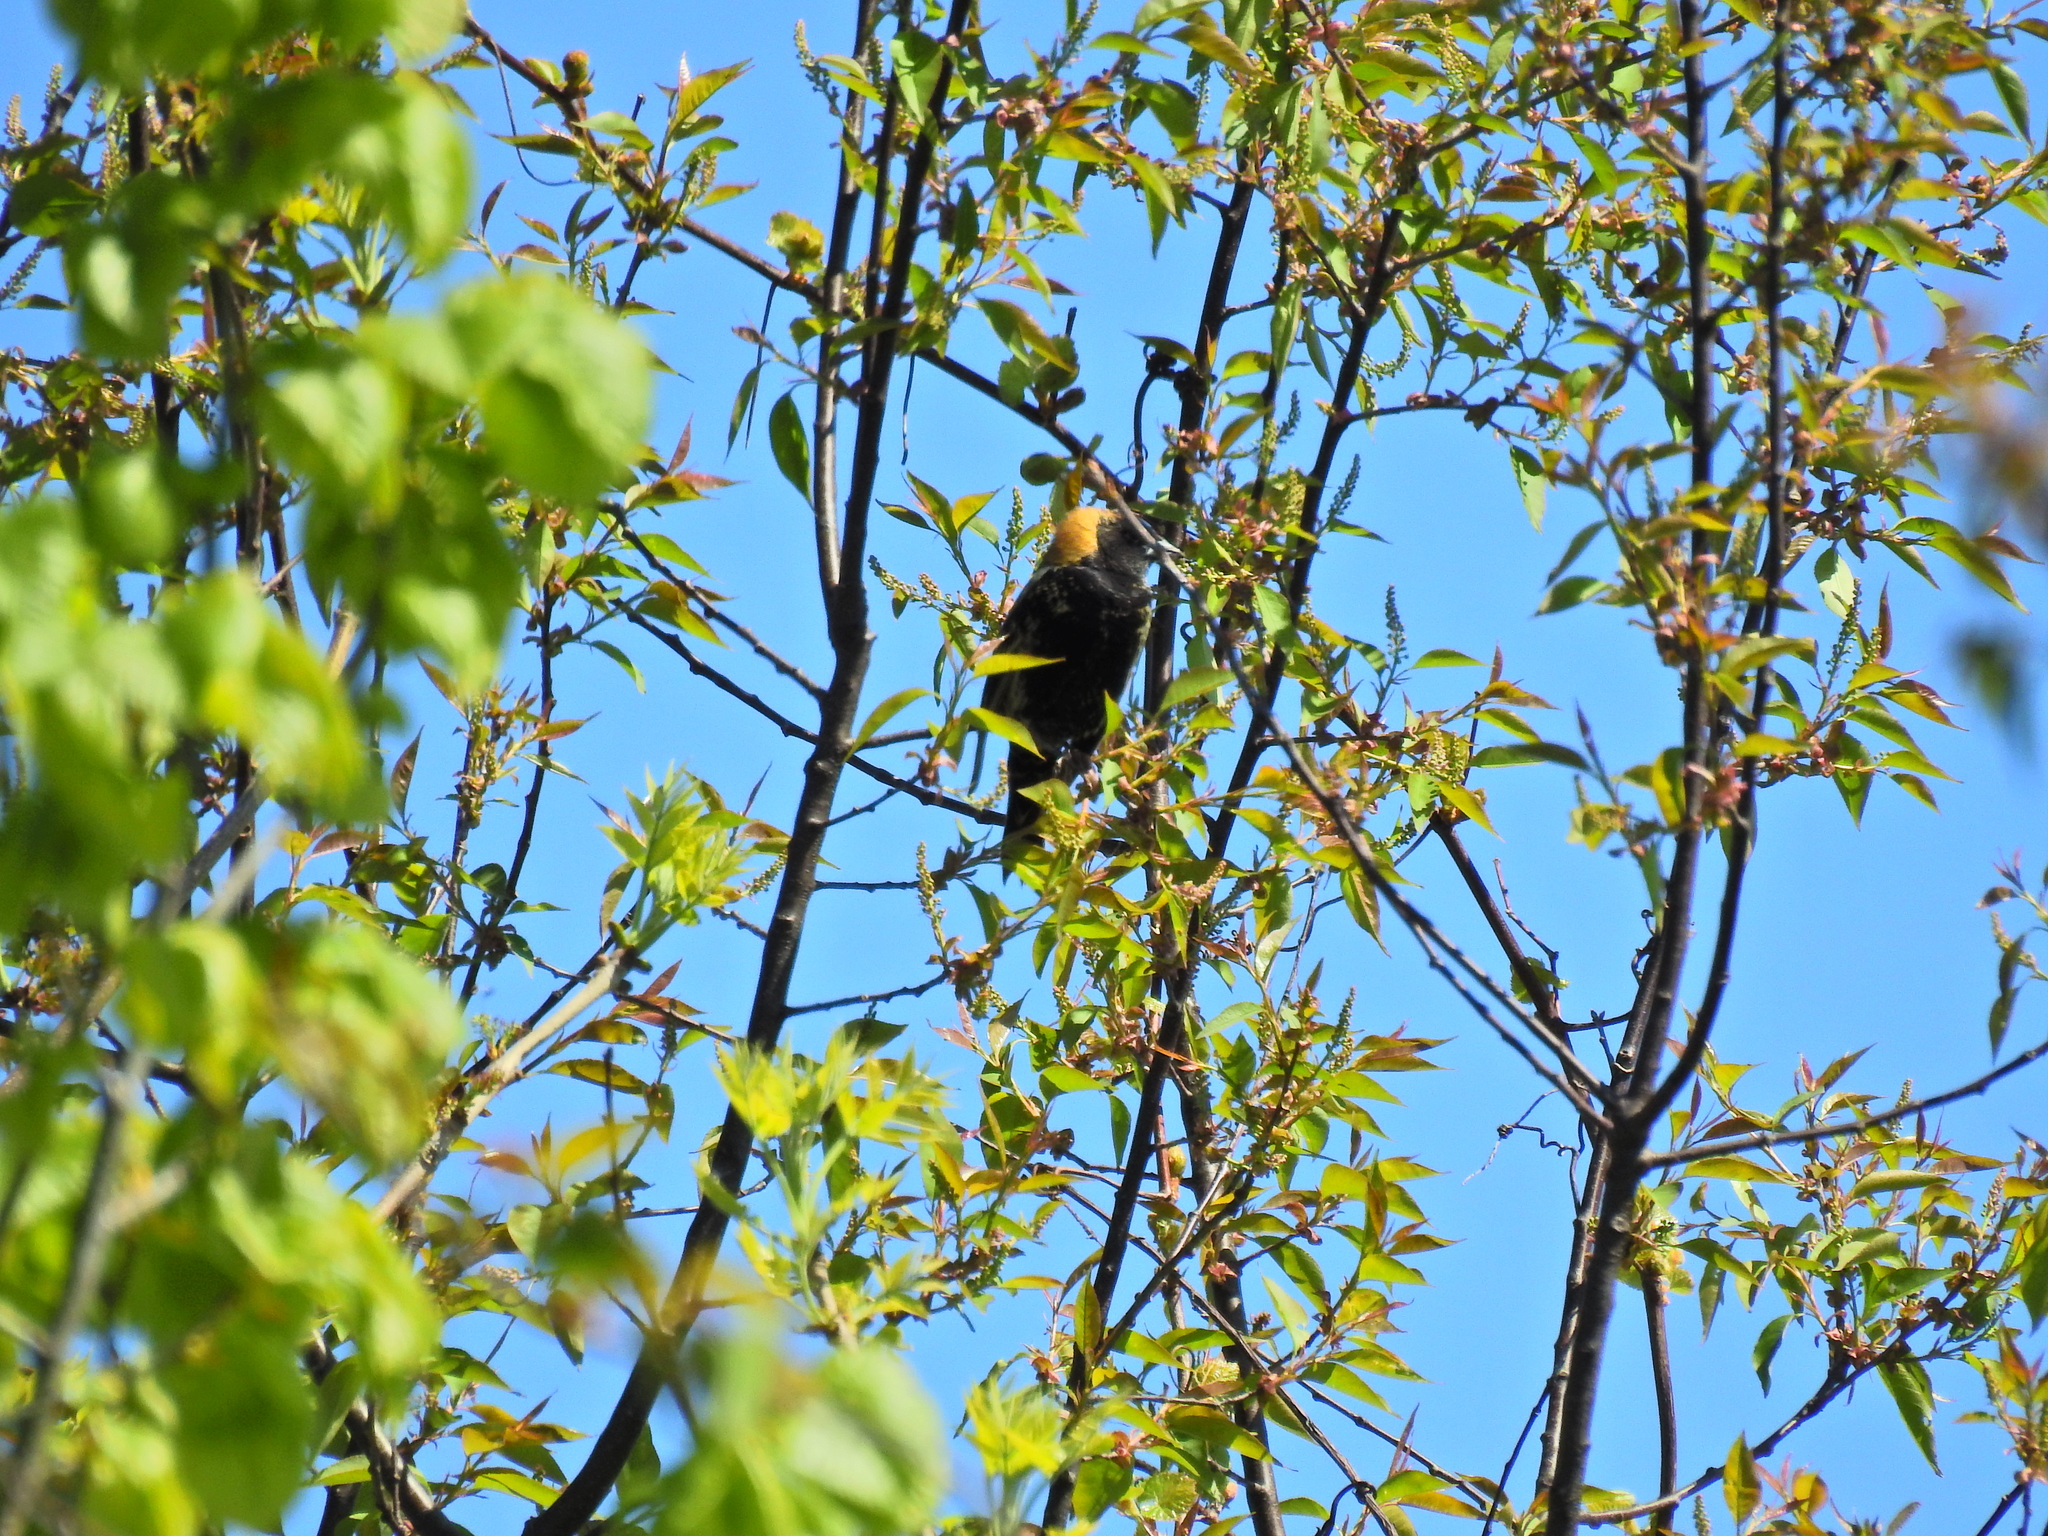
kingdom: Animalia
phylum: Chordata
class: Aves
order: Passeriformes
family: Icteridae
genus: Dolichonyx
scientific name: Dolichonyx oryzivorus
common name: Bobolink
